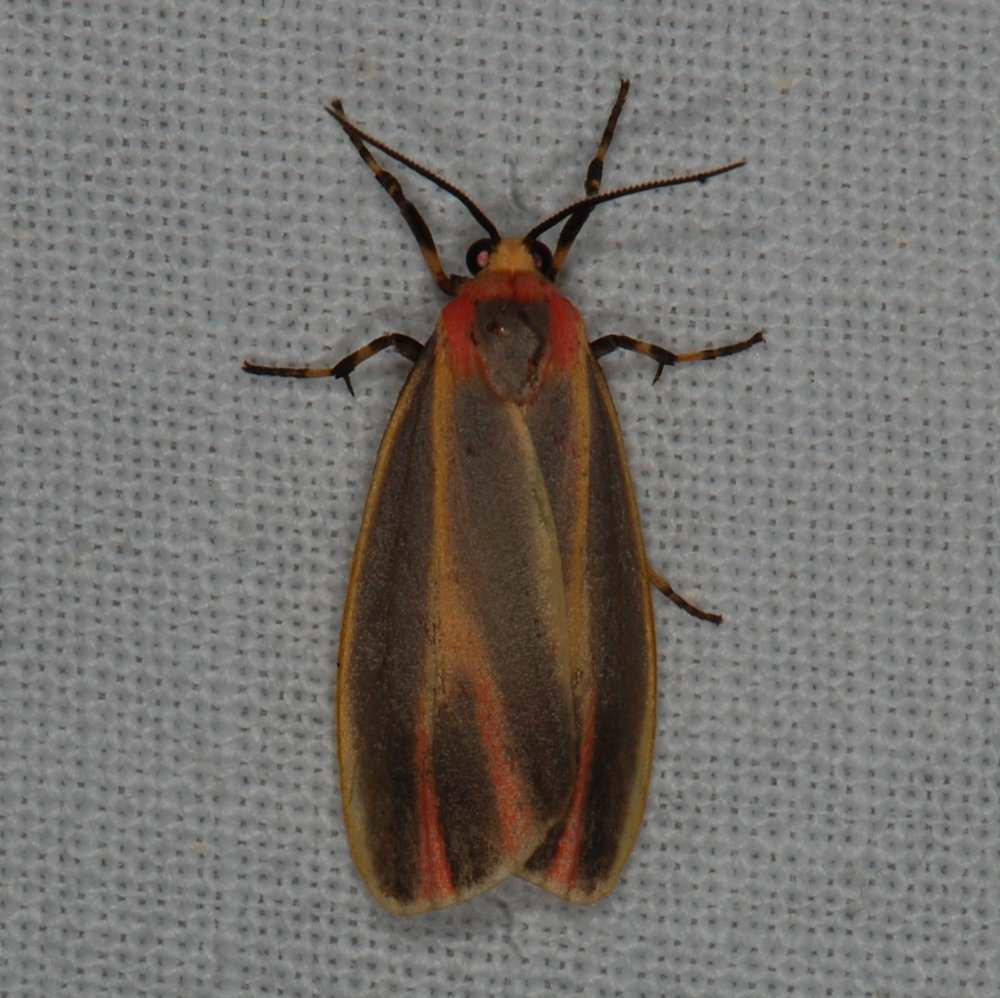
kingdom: Animalia
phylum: Arthropoda
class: Insecta
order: Lepidoptera
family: Erebidae
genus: Hypoprepia
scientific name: Hypoprepia fucosa
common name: Painted lichen moth
